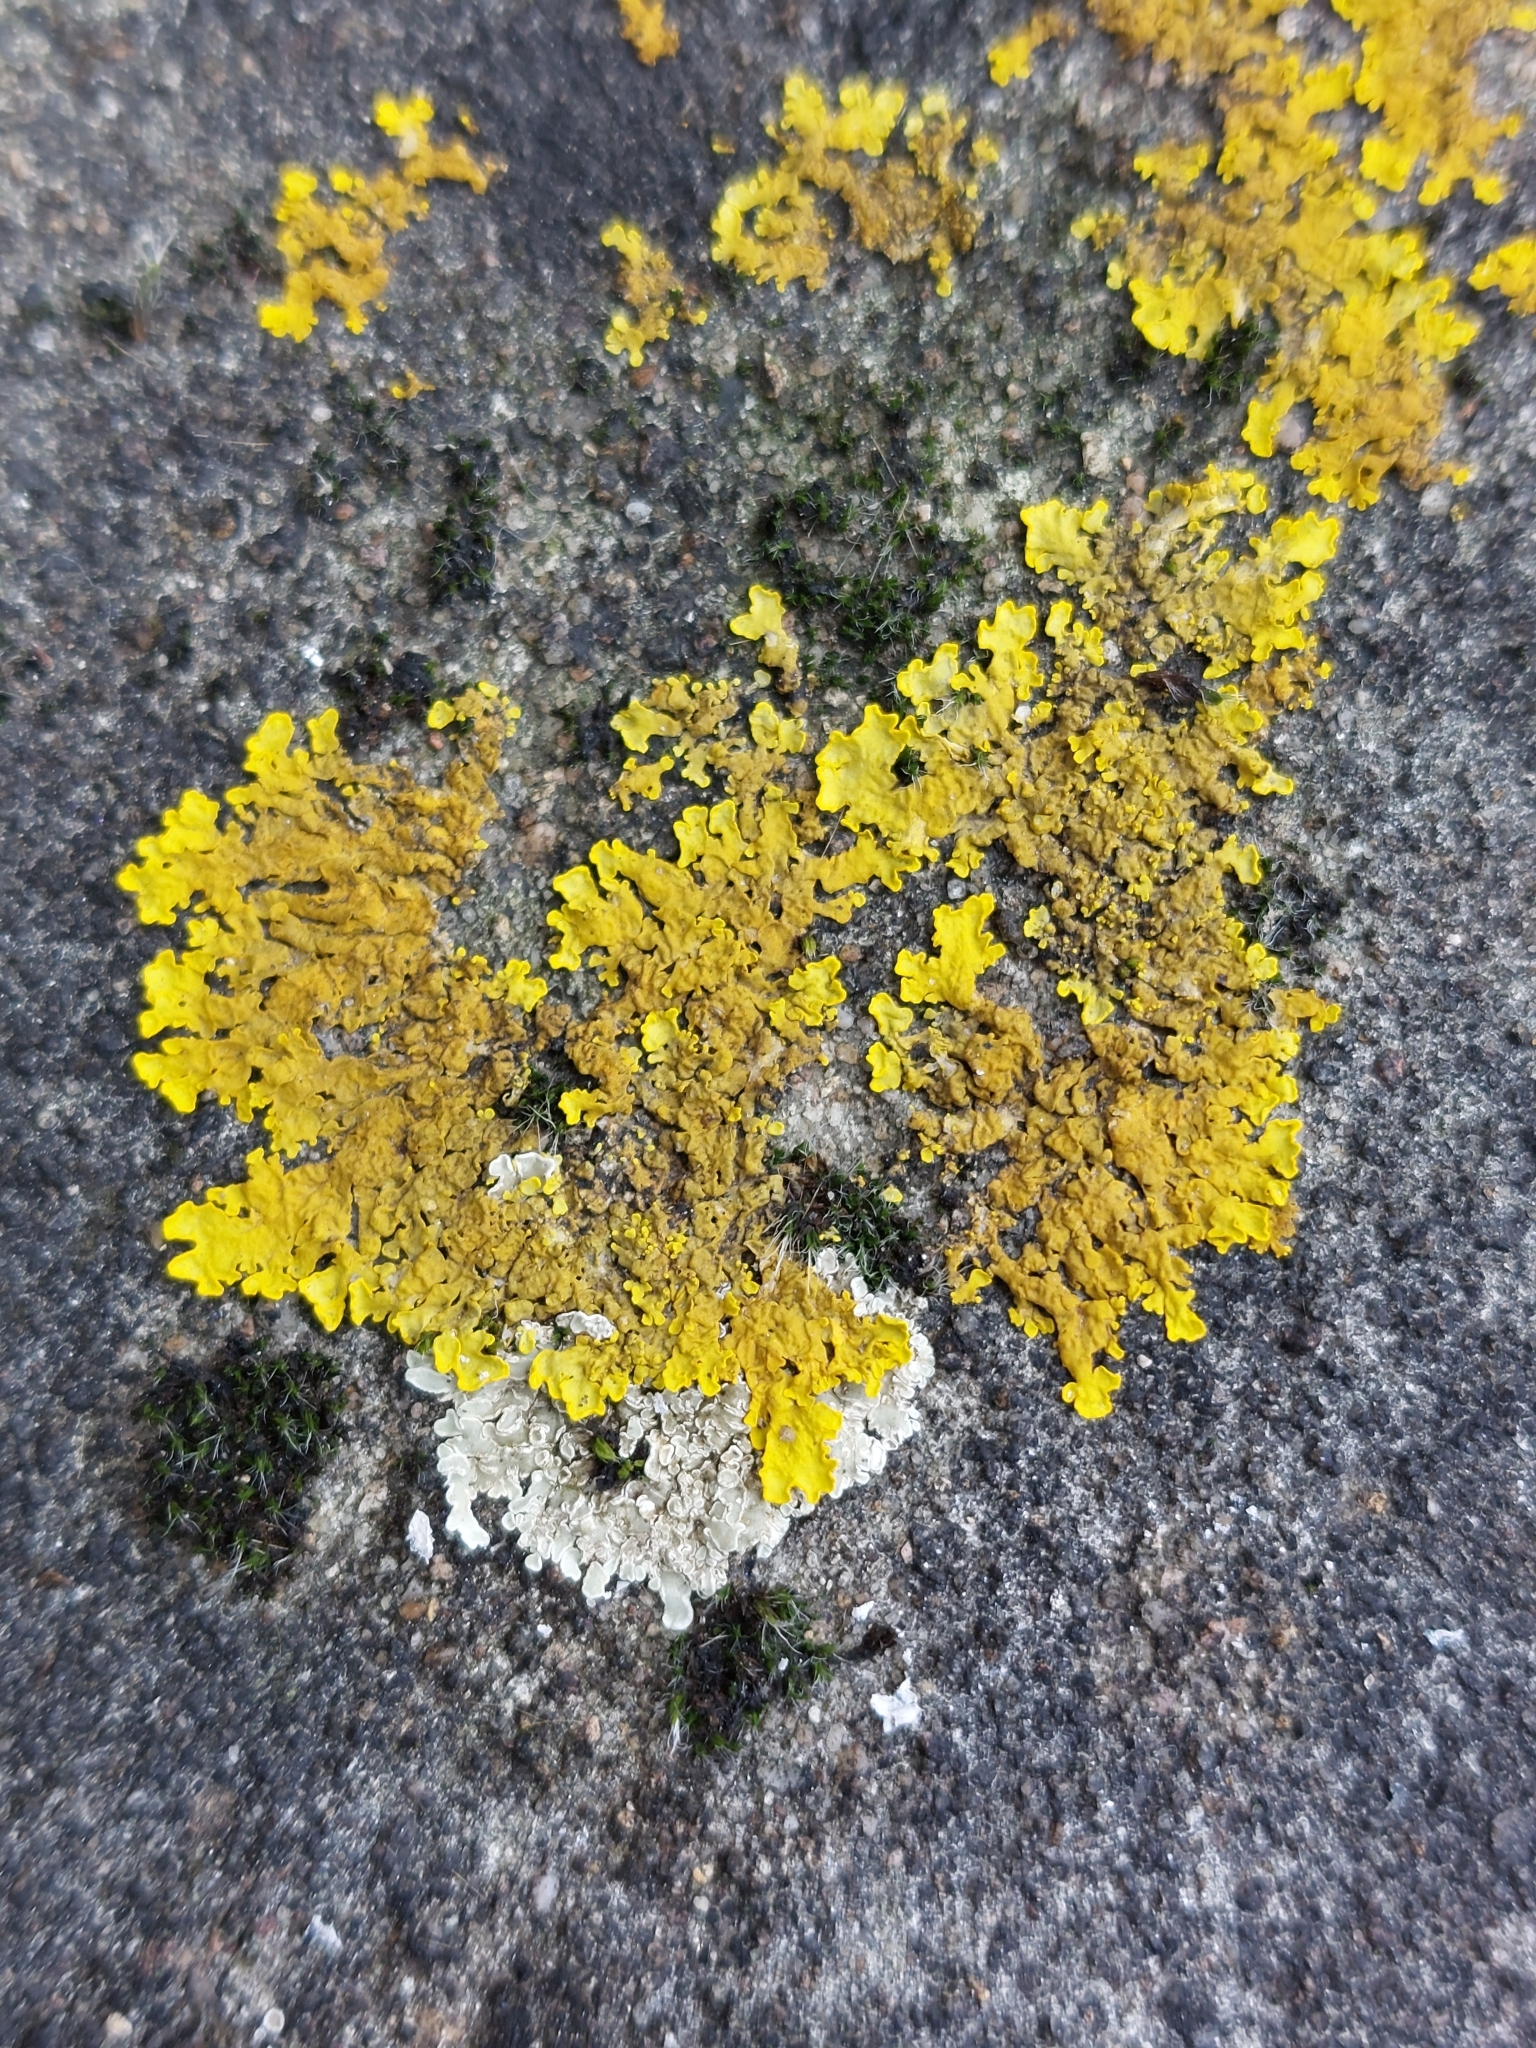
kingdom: Fungi
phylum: Ascomycota
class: Lecanoromycetes
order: Teloschistales
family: Teloschistaceae
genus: Xanthoria
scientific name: Xanthoria parietina
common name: Common orange lichen
